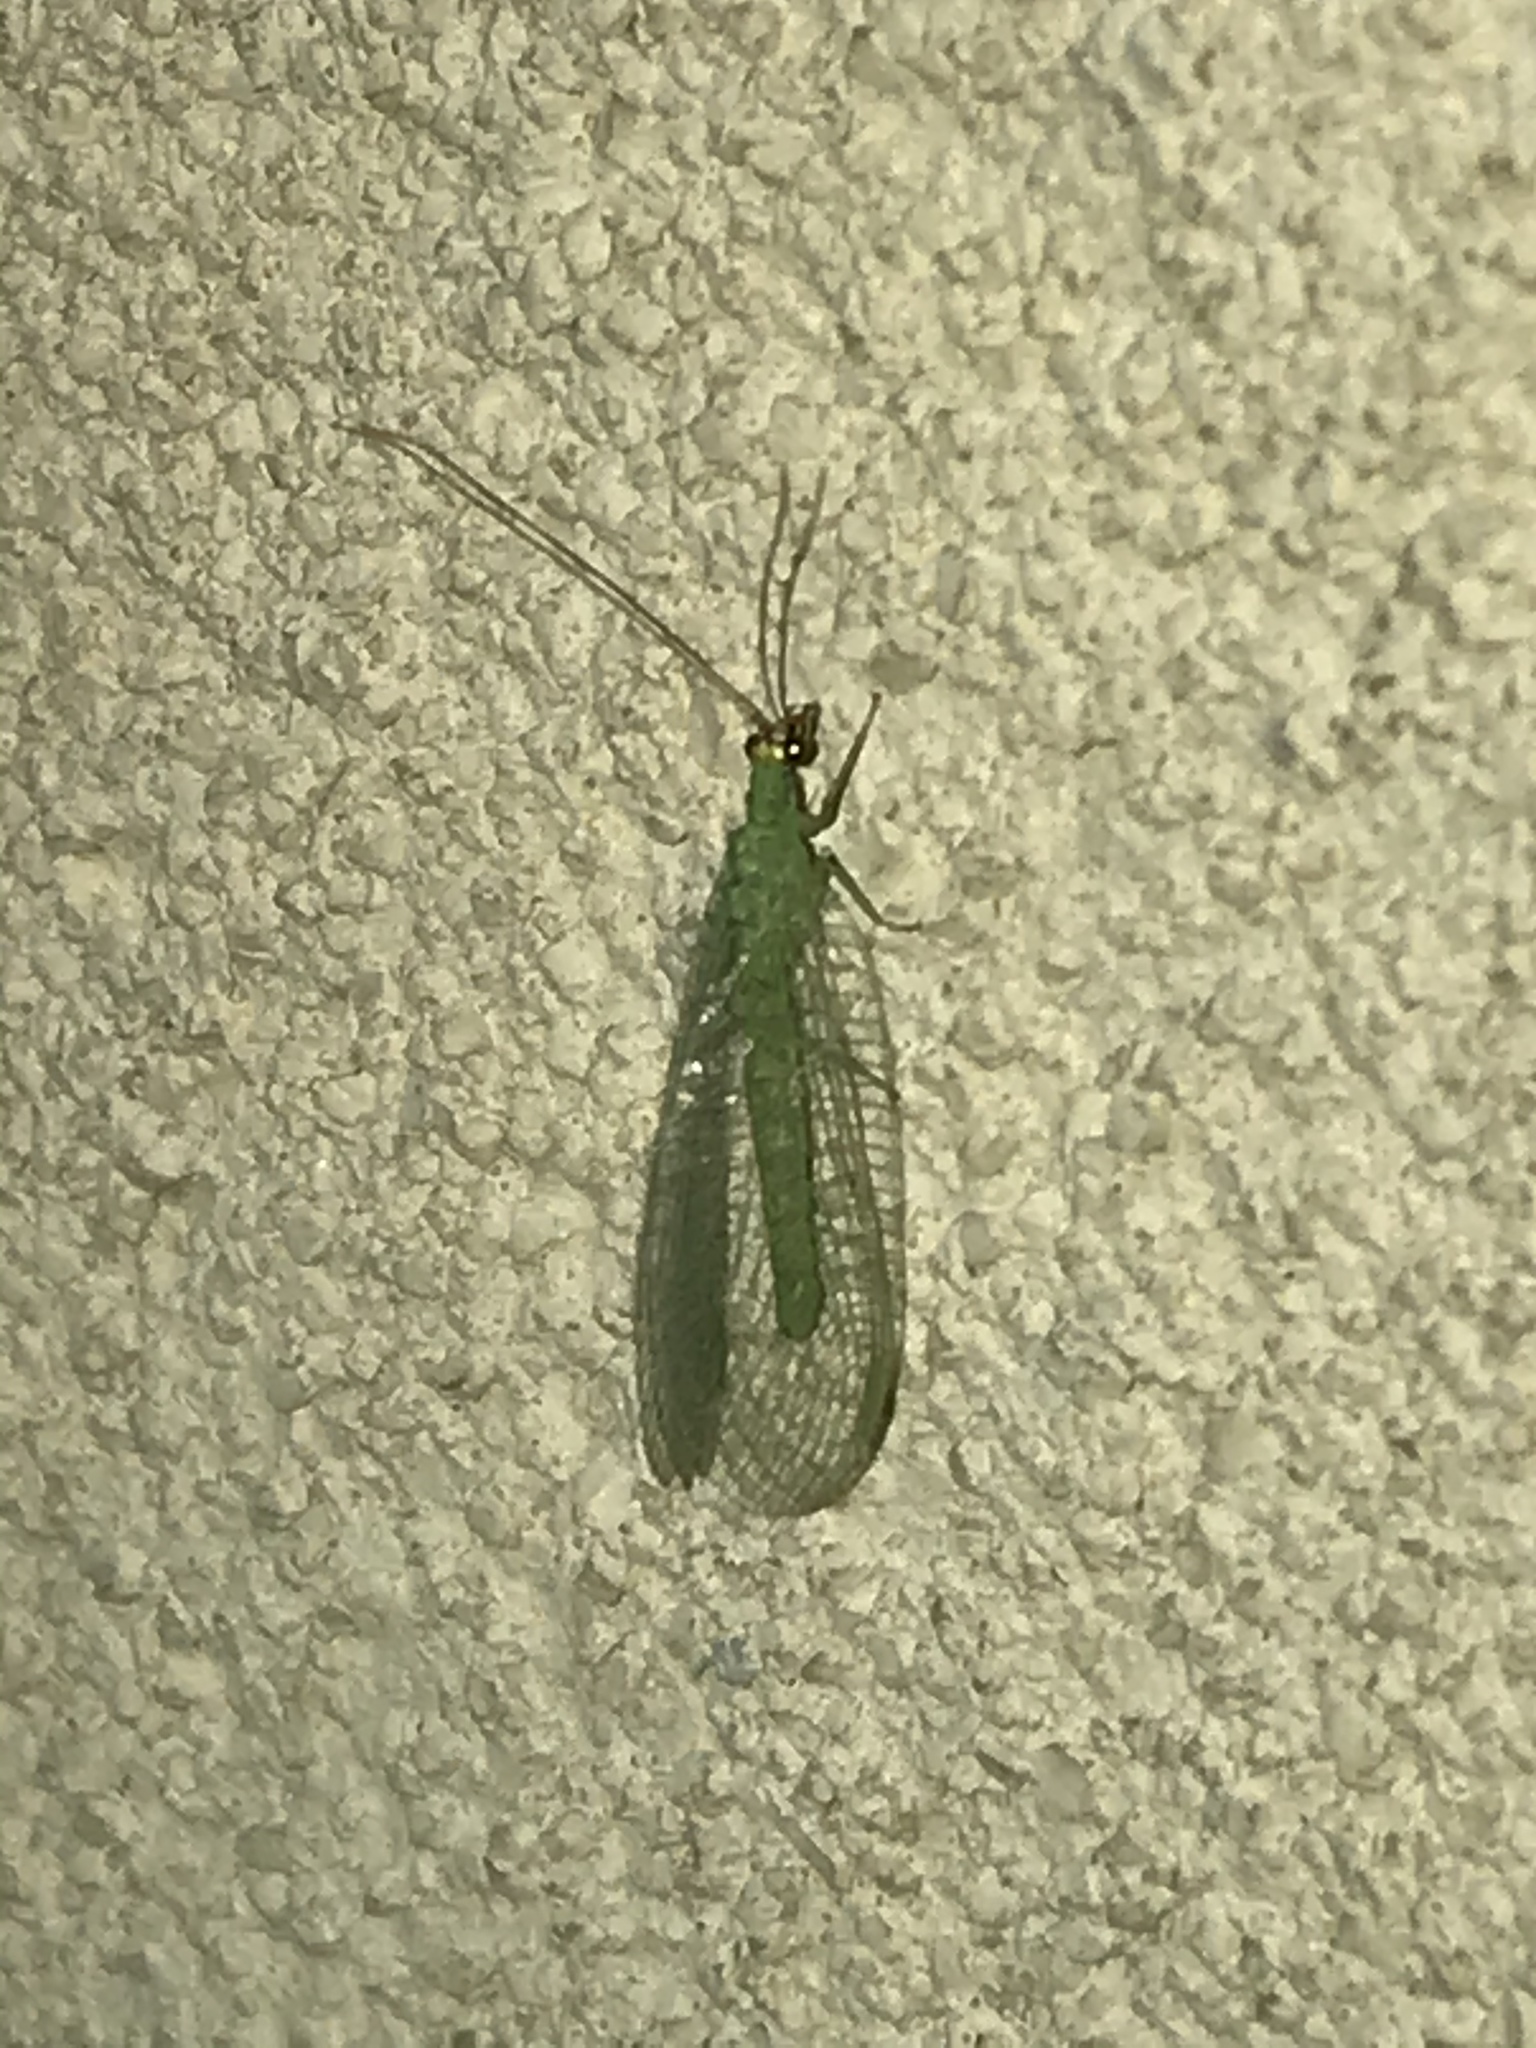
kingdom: Animalia
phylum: Arthropoda
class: Insecta
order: Neuroptera
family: Chrysopidae
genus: Chrysopa
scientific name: Chrysopa oculata
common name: Golden-eyed lacewing
